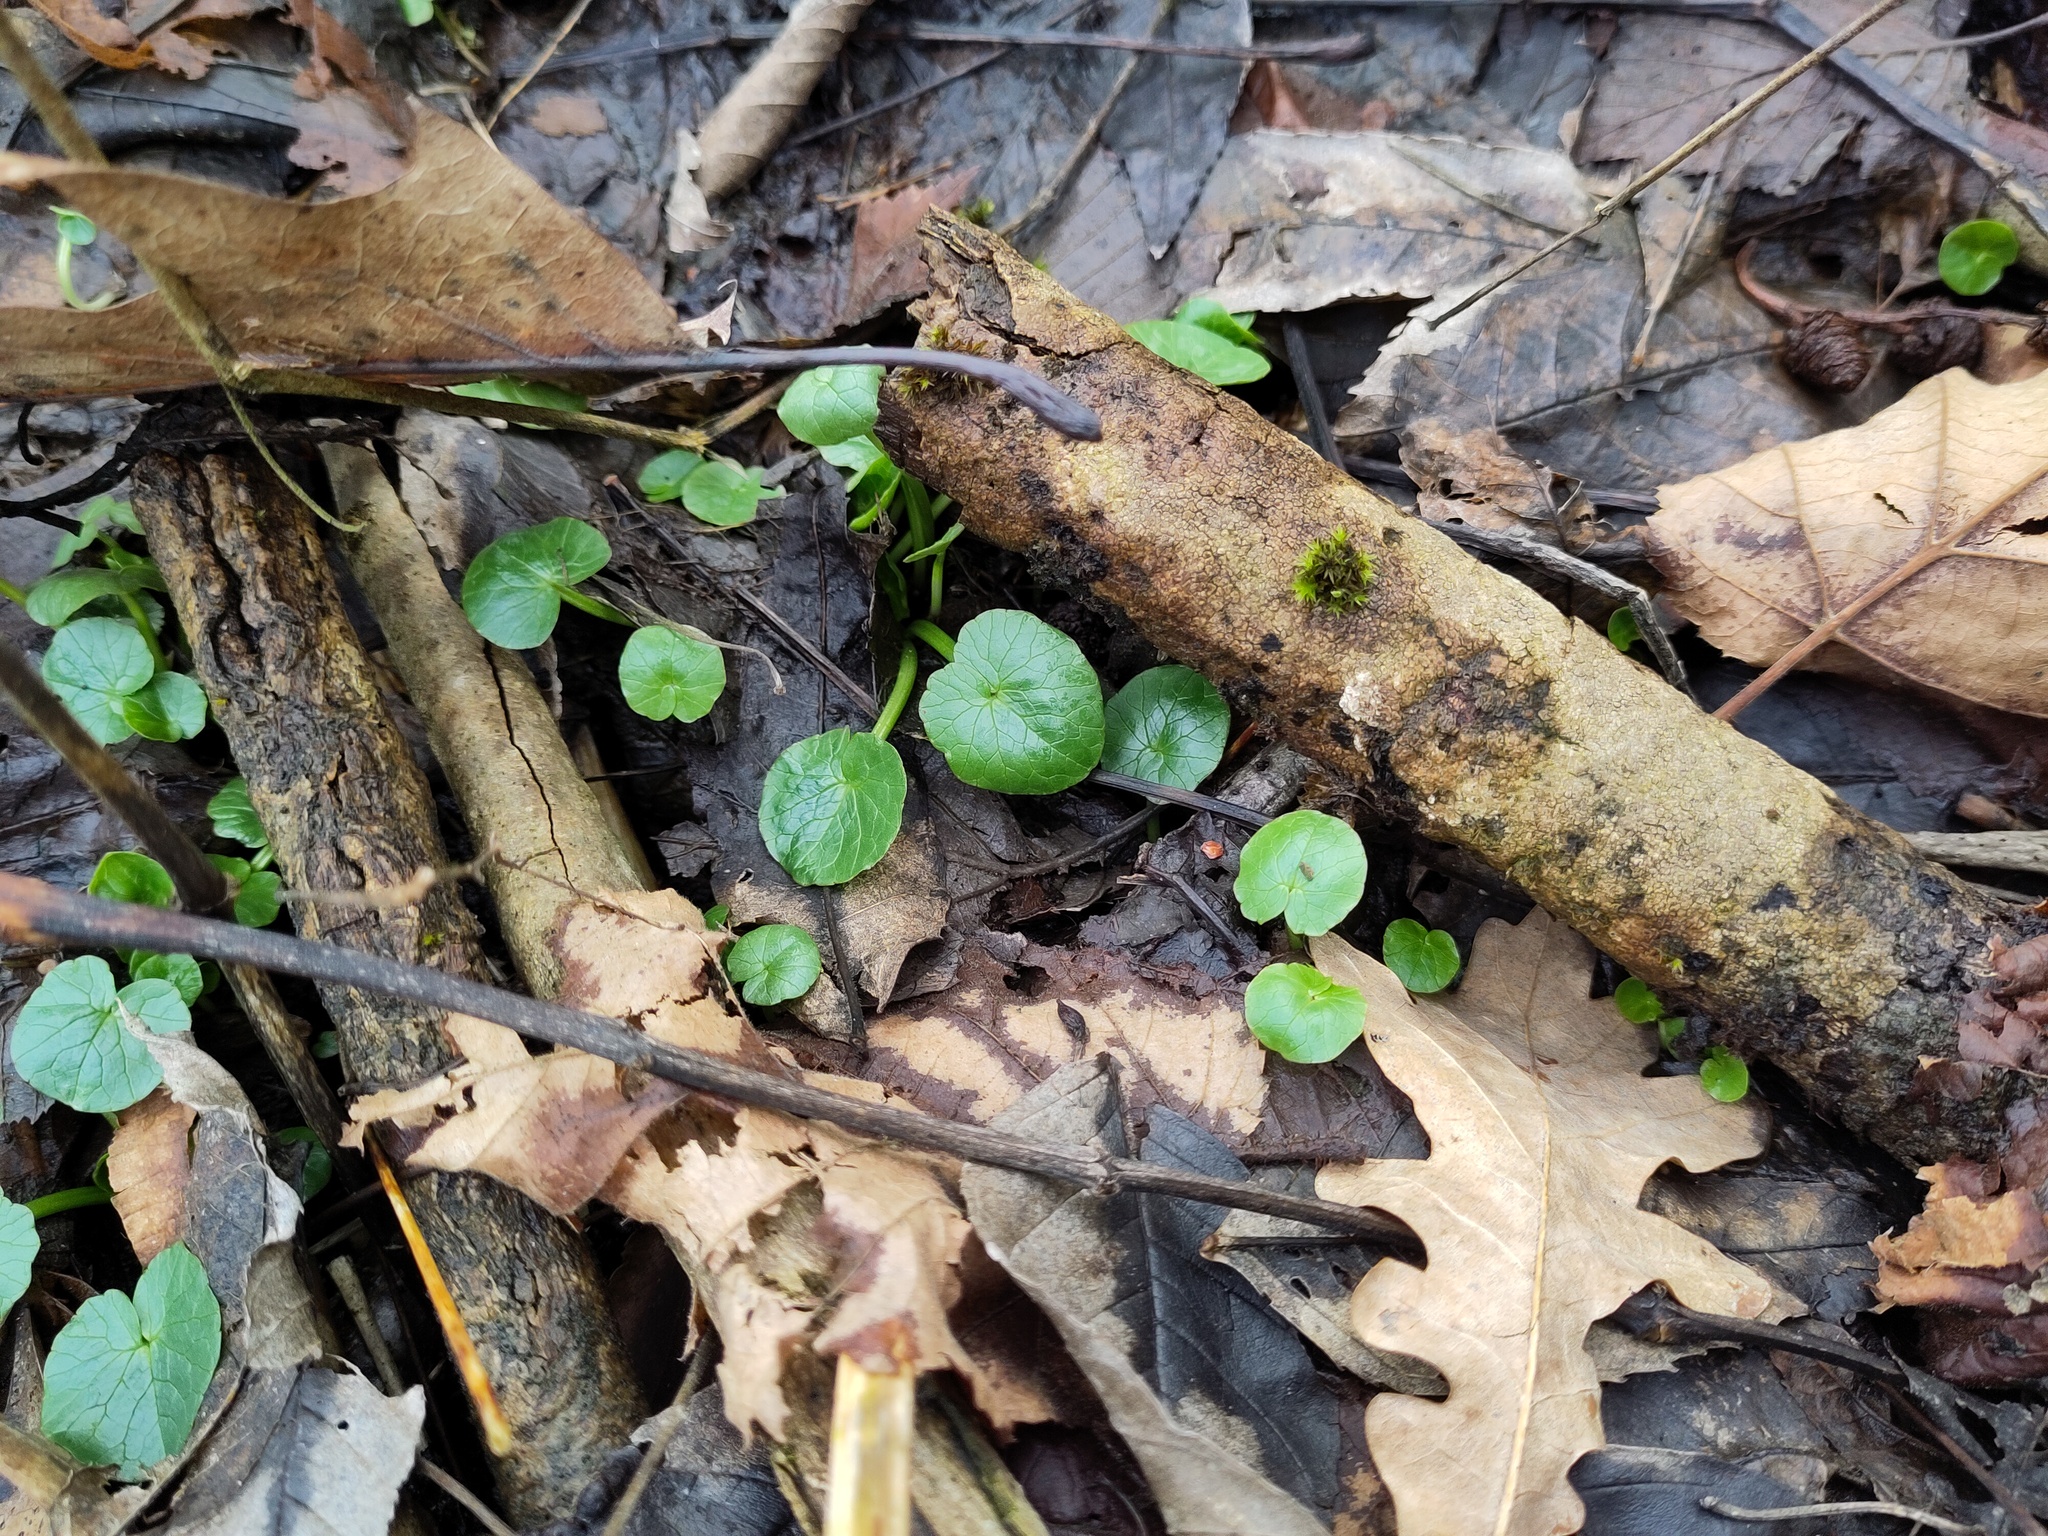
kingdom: Plantae
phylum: Tracheophyta
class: Magnoliopsida
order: Ranunculales
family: Ranunculaceae
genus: Ficaria
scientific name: Ficaria verna
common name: Lesser celandine
